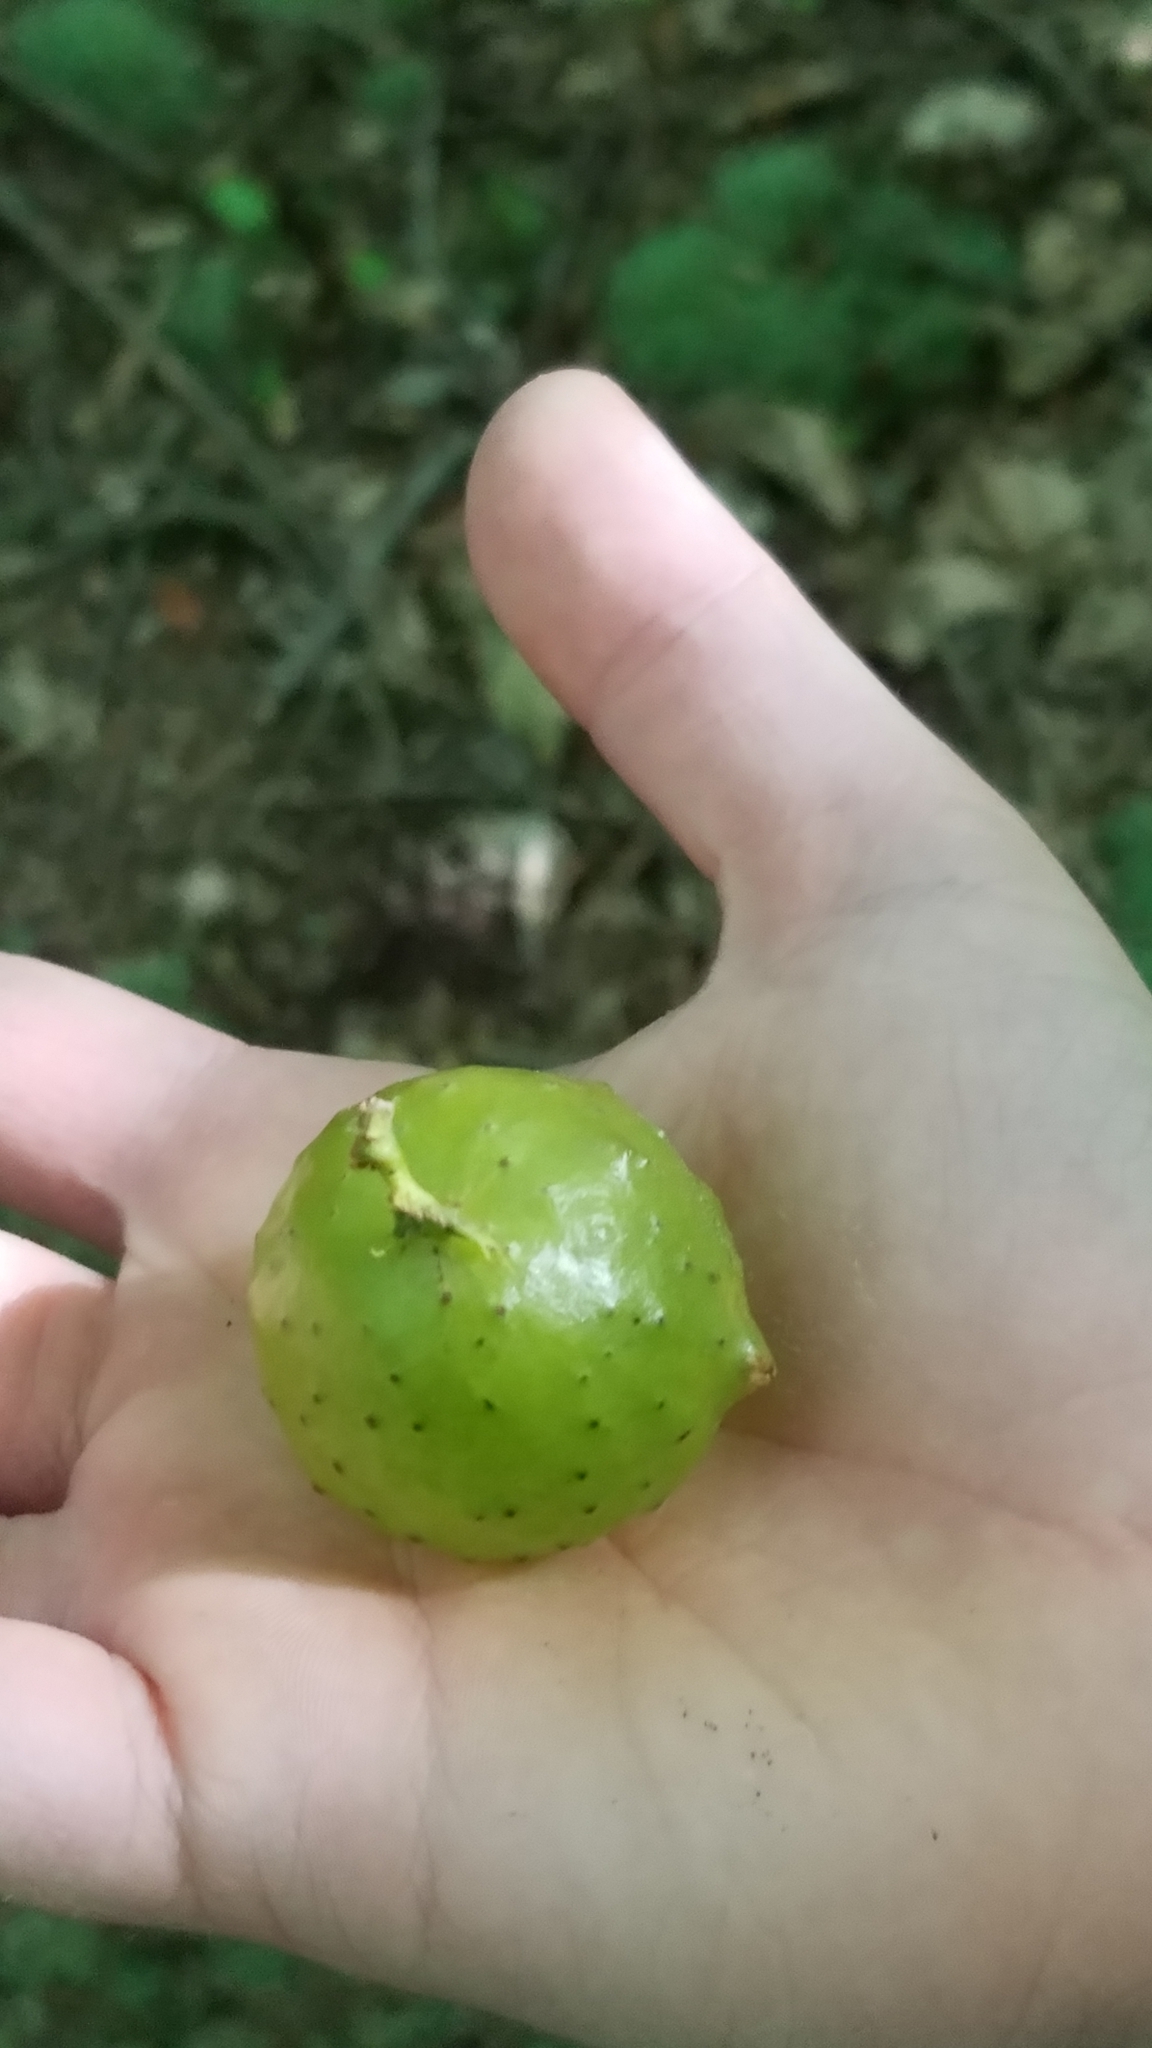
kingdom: Animalia
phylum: Arthropoda
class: Insecta
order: Hymenoptera
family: Cynipidae
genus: Amphibolips
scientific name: Amphibolips
